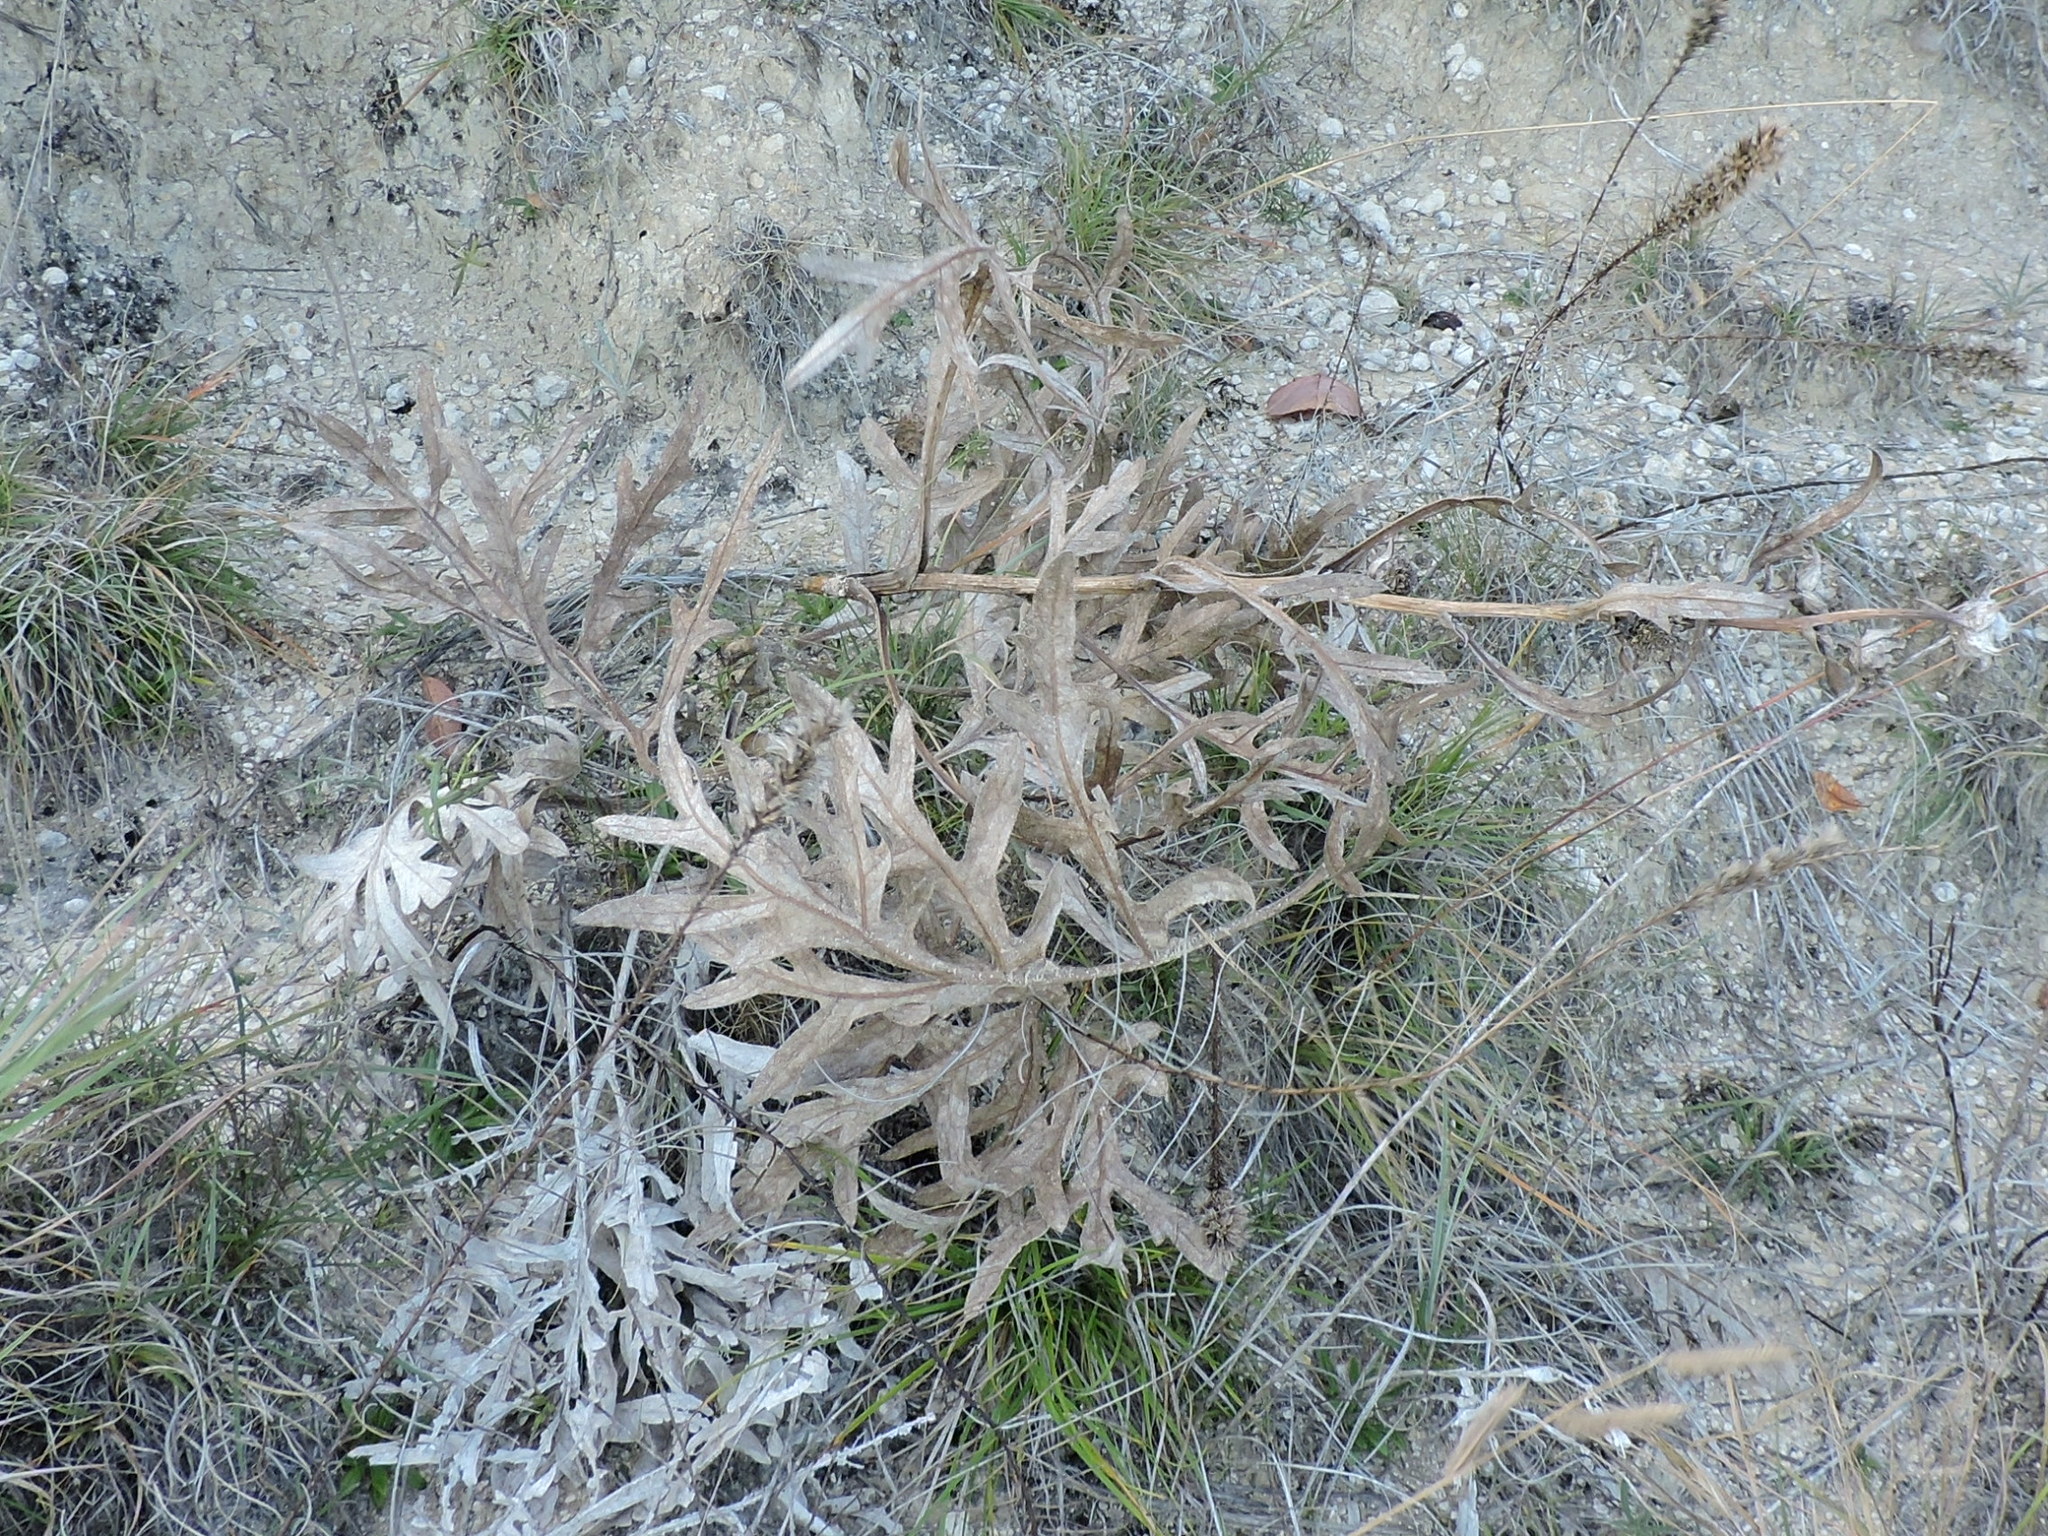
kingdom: Plantae
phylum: Tracheophyta
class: Magnoliopsida
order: Asterales
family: Asteraceae
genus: Silphium
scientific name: Silphium albiflorum
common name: White rosinweed
